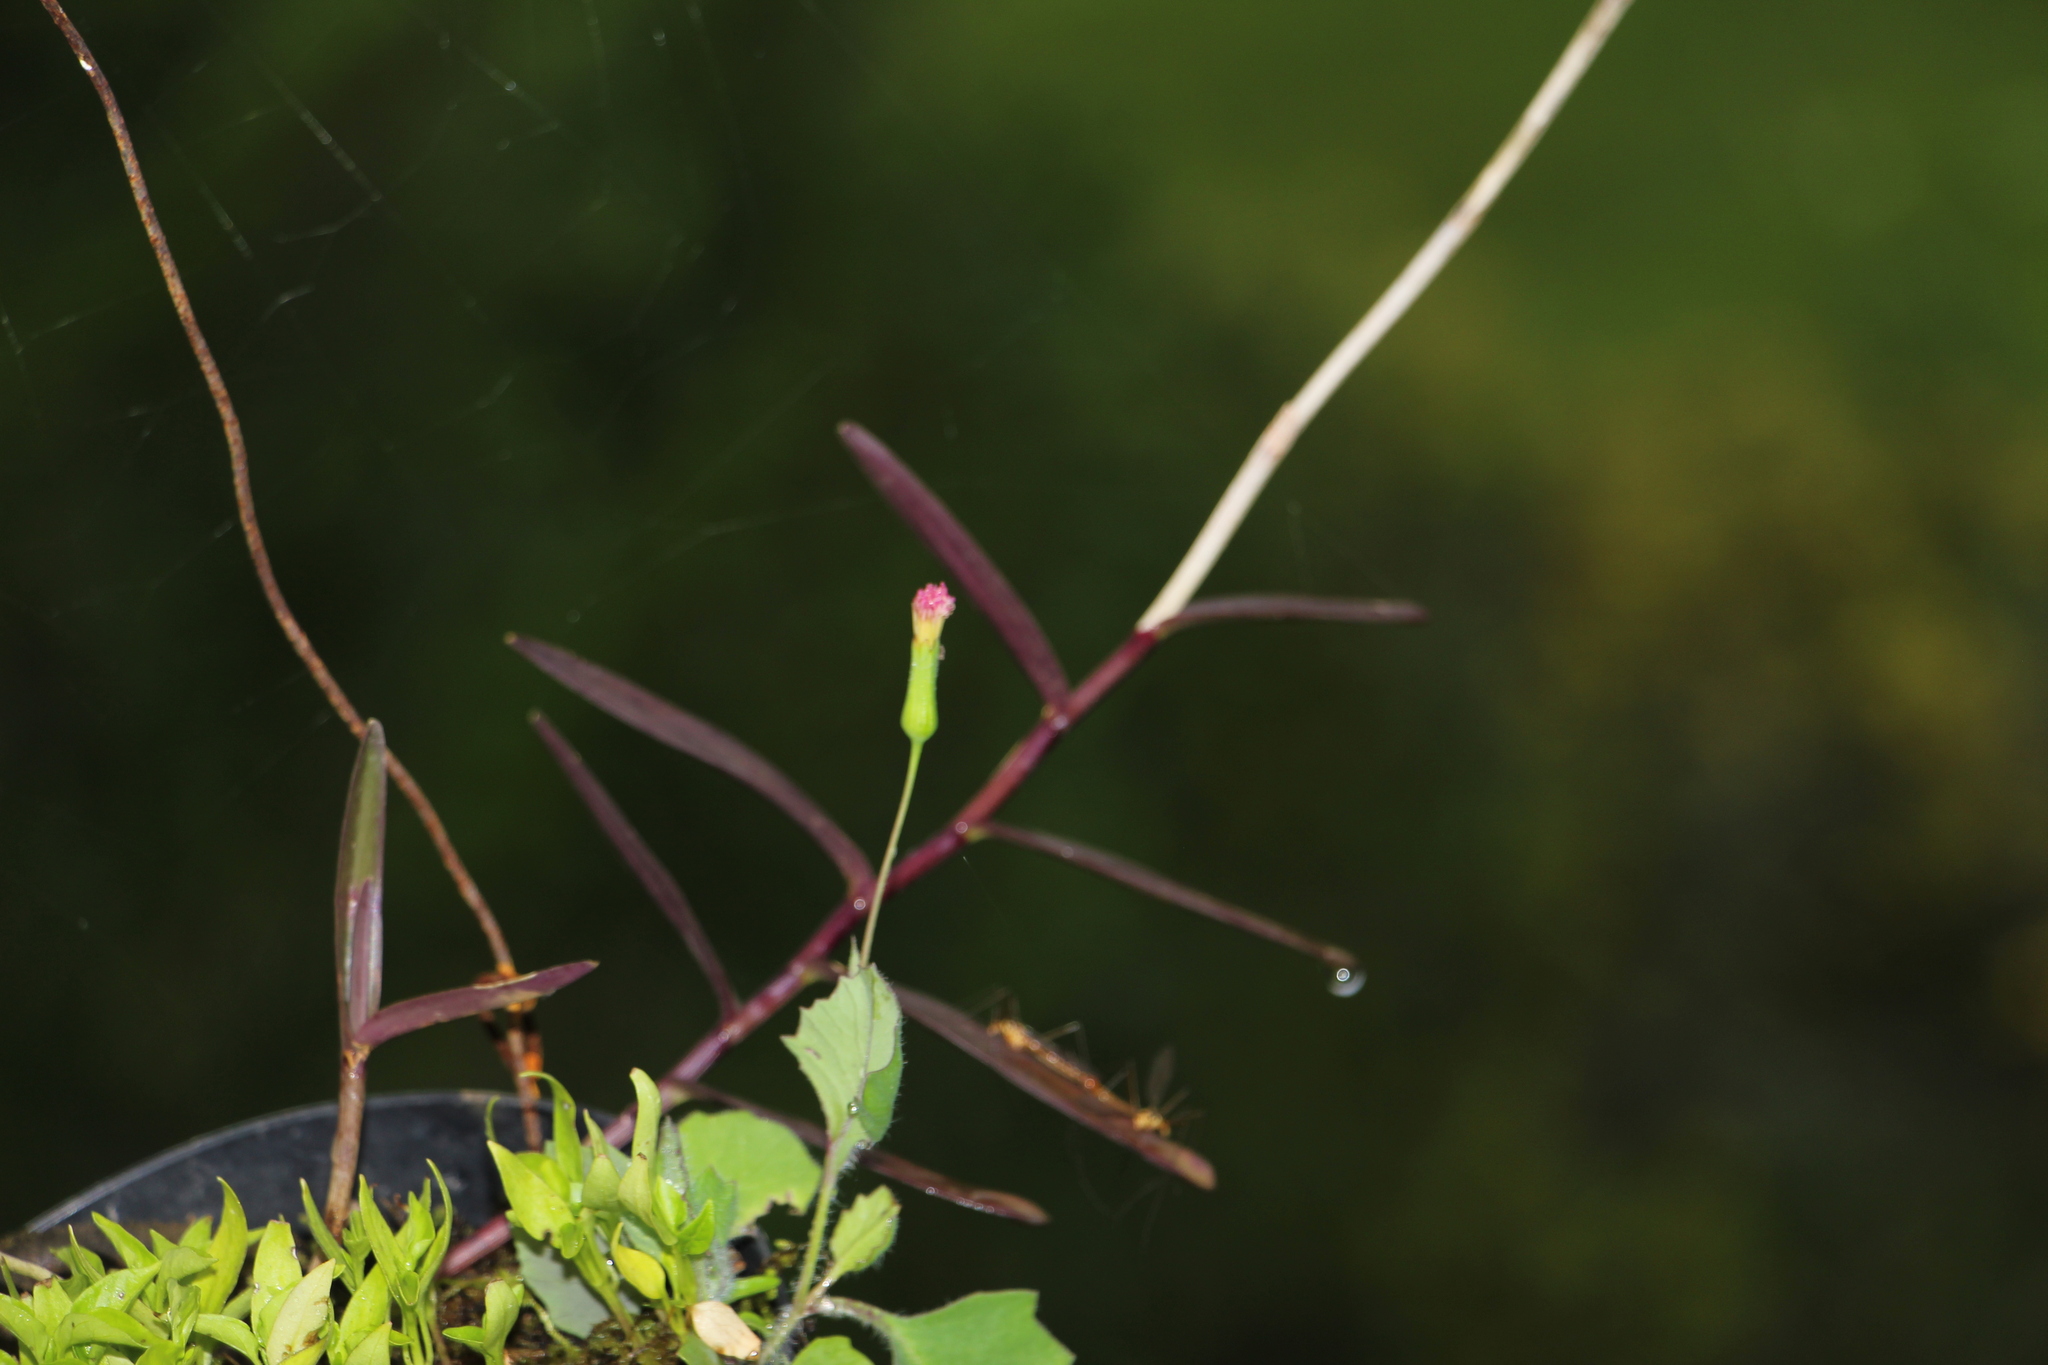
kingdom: Plantae
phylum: Tracheophyta
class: Liliopsida
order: Asparagales
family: Orchidaceae
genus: Epidendrum
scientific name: Epidendrum aura-usecheae
